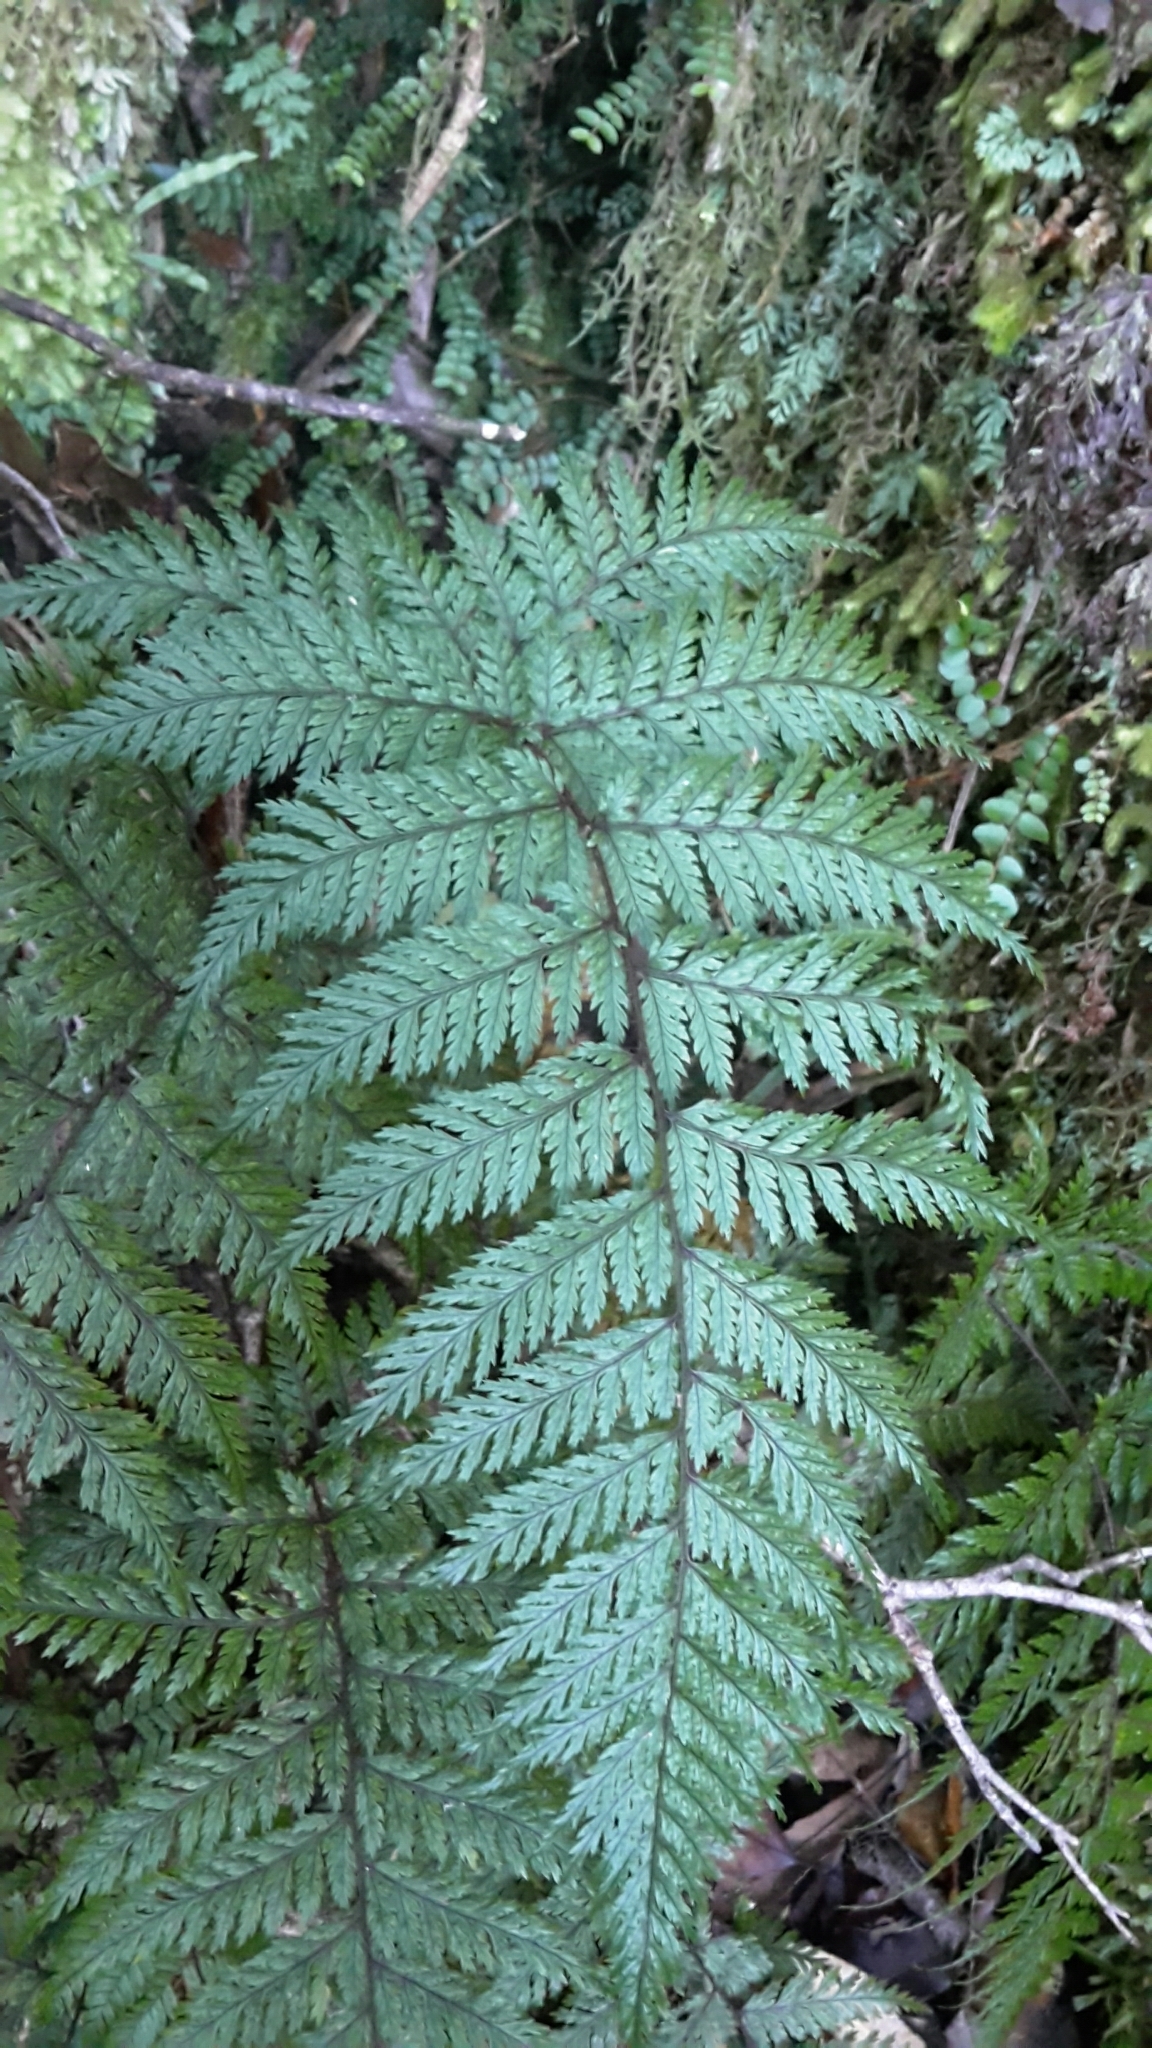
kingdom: Plantae
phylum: Tracheophyta
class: Polypodiopsida
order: Polypodiales
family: Dryopteridaceae
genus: Lastreopsis
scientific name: Lastreopsis hispida
